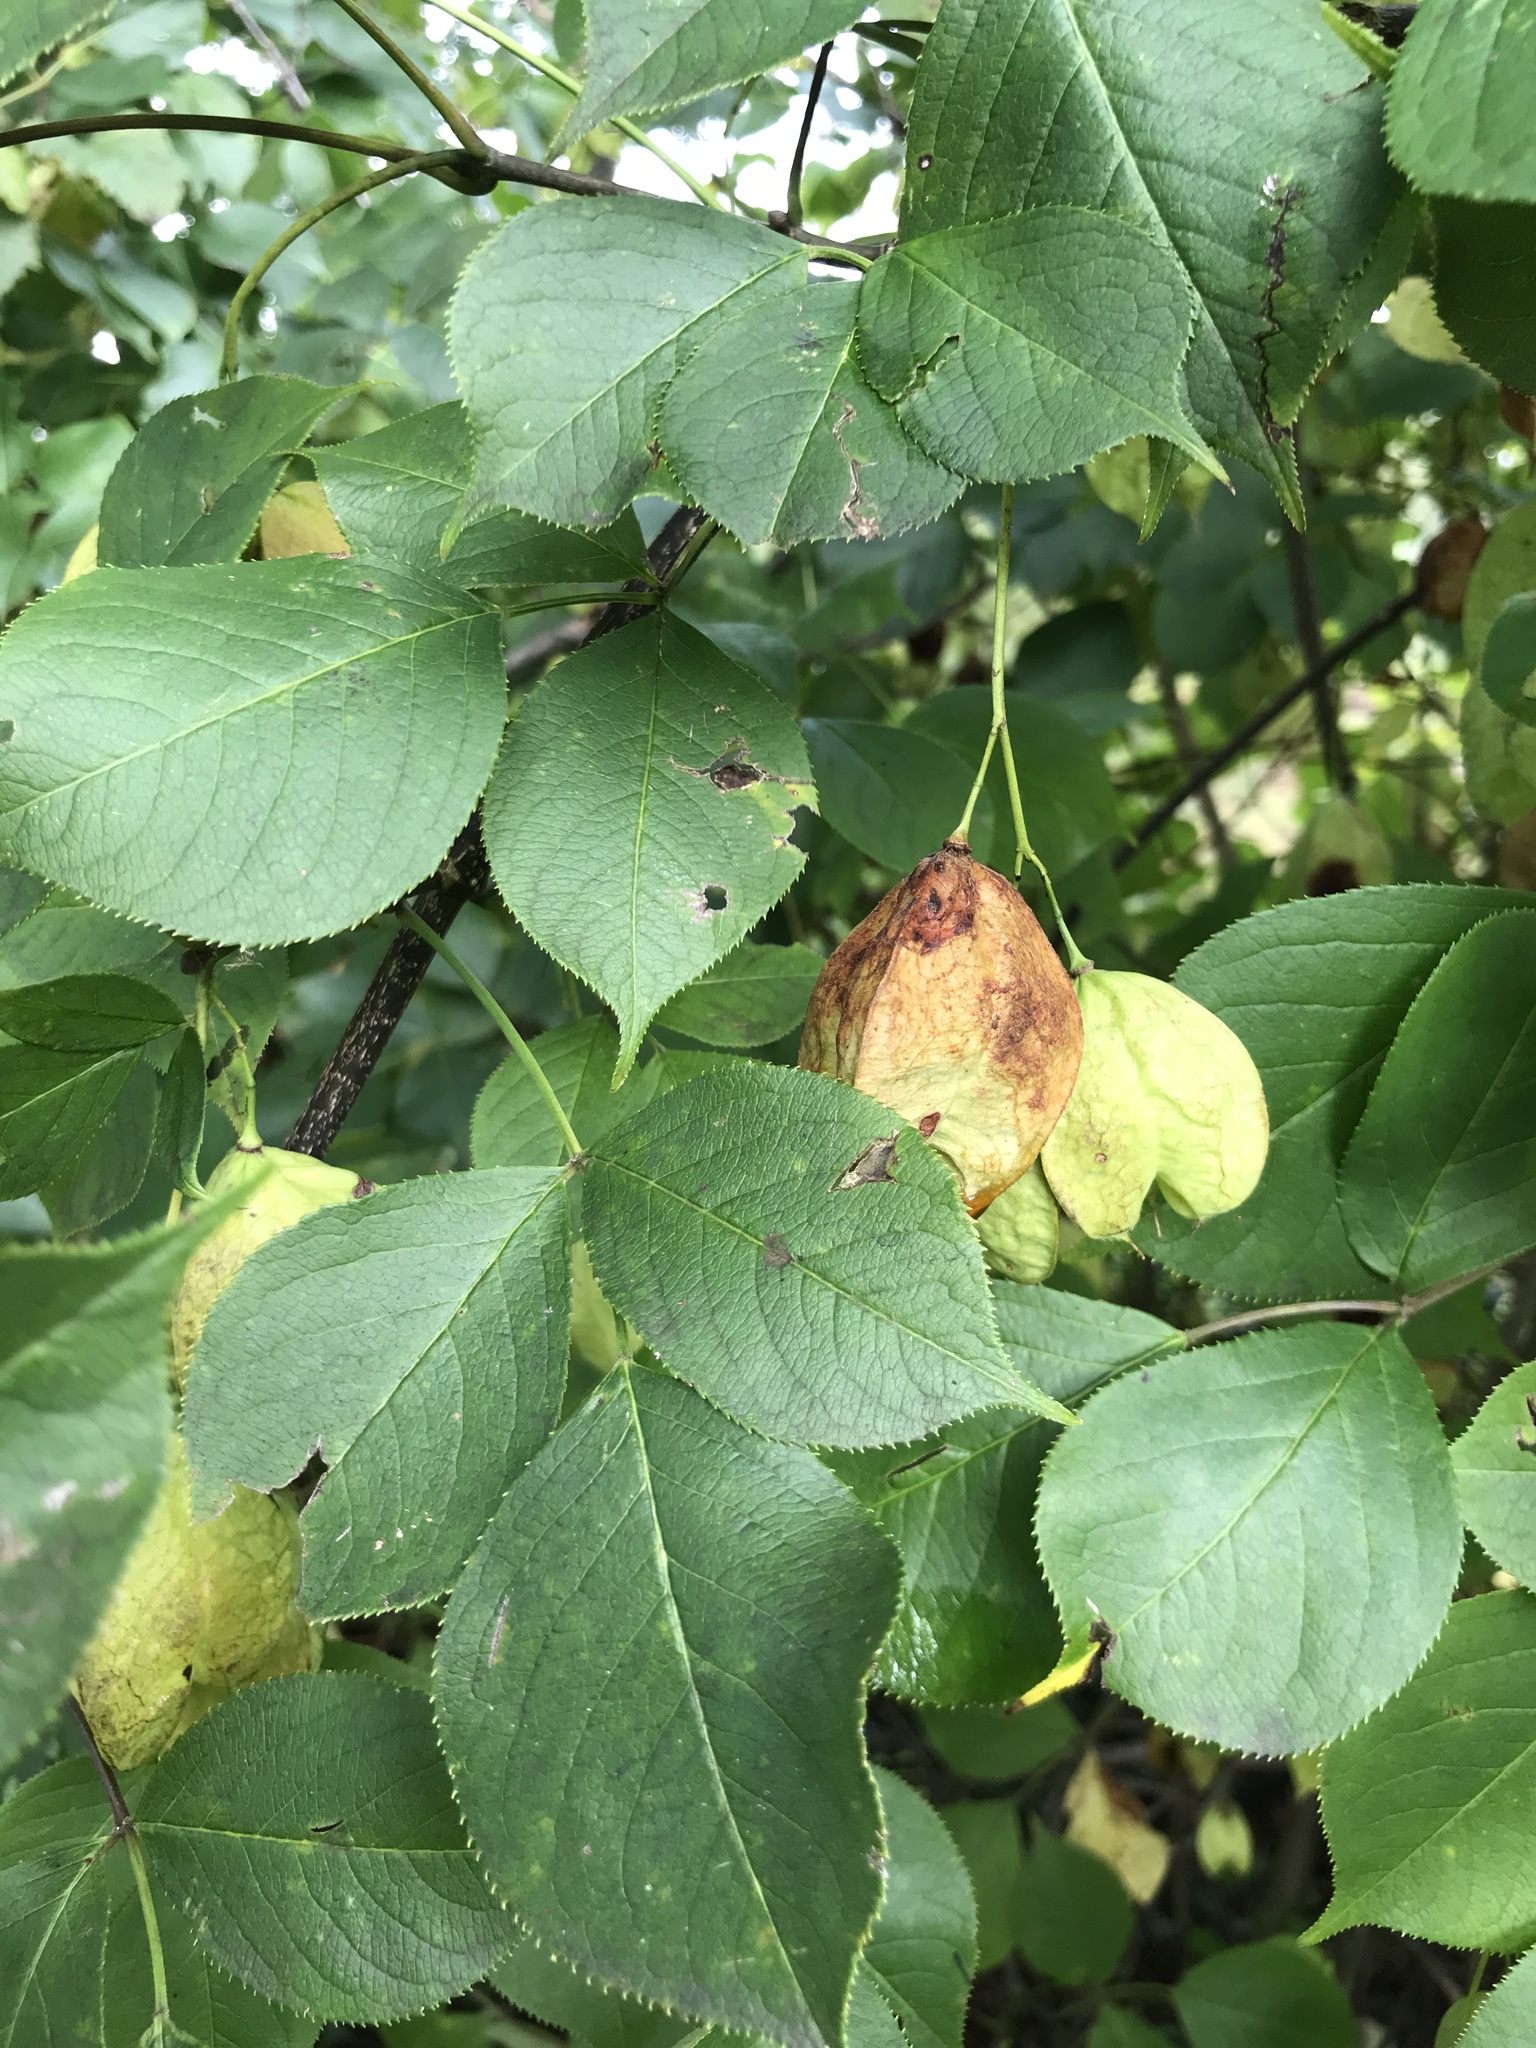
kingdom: Plantae
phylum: Tracheophyta
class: Magnoliopsida
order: Crossosomatales
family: Staphyleaceae
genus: Staphylea
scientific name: Staphylea trifolia
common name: American bladdernut
